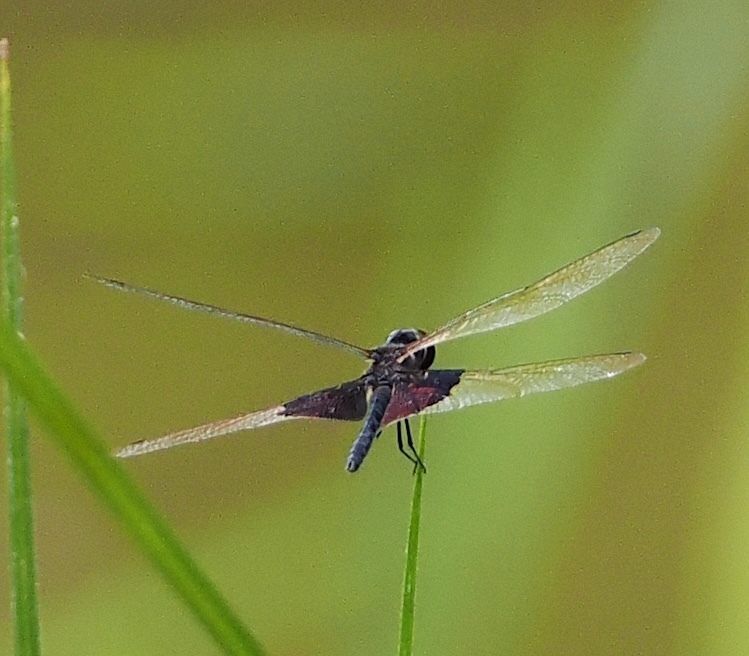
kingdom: Animalia
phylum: Arthropoda
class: Insecta
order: Odonata
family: Libellulidae
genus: Rhyothemis
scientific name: Rhyothemis semihyalina
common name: Phantom flutterer
